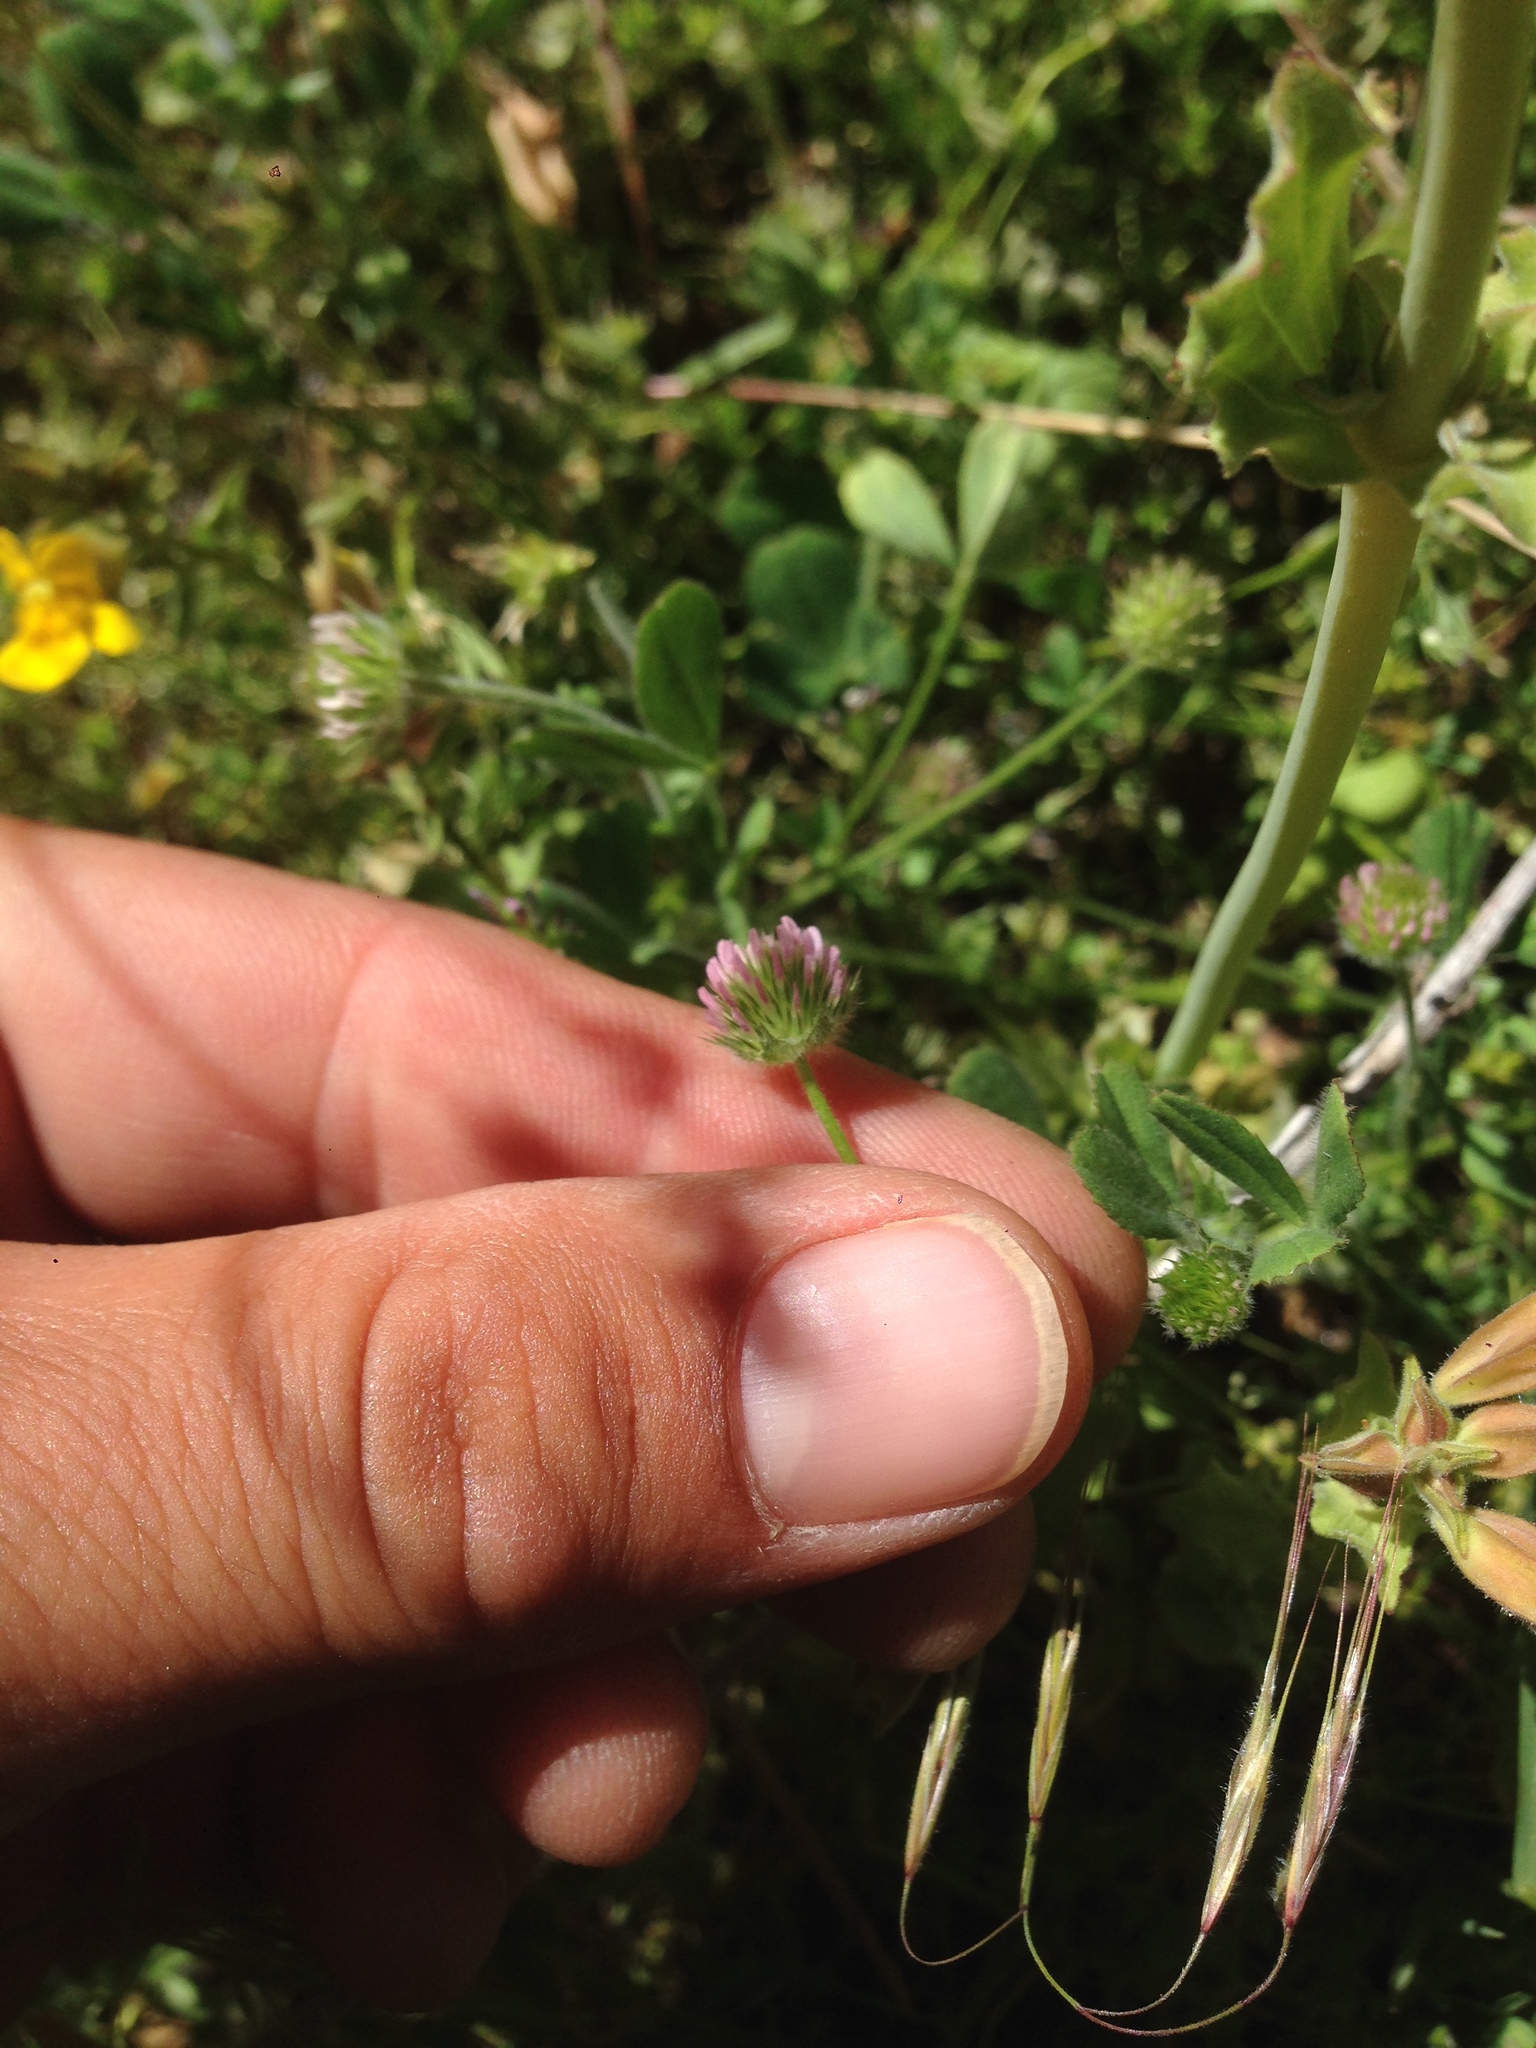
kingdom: Plantae
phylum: Tracheophyta
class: Magnoliopsida
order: Fabales
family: Fabaceae
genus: Trifolium
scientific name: Trifolium microcephalum
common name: Maiden clover
